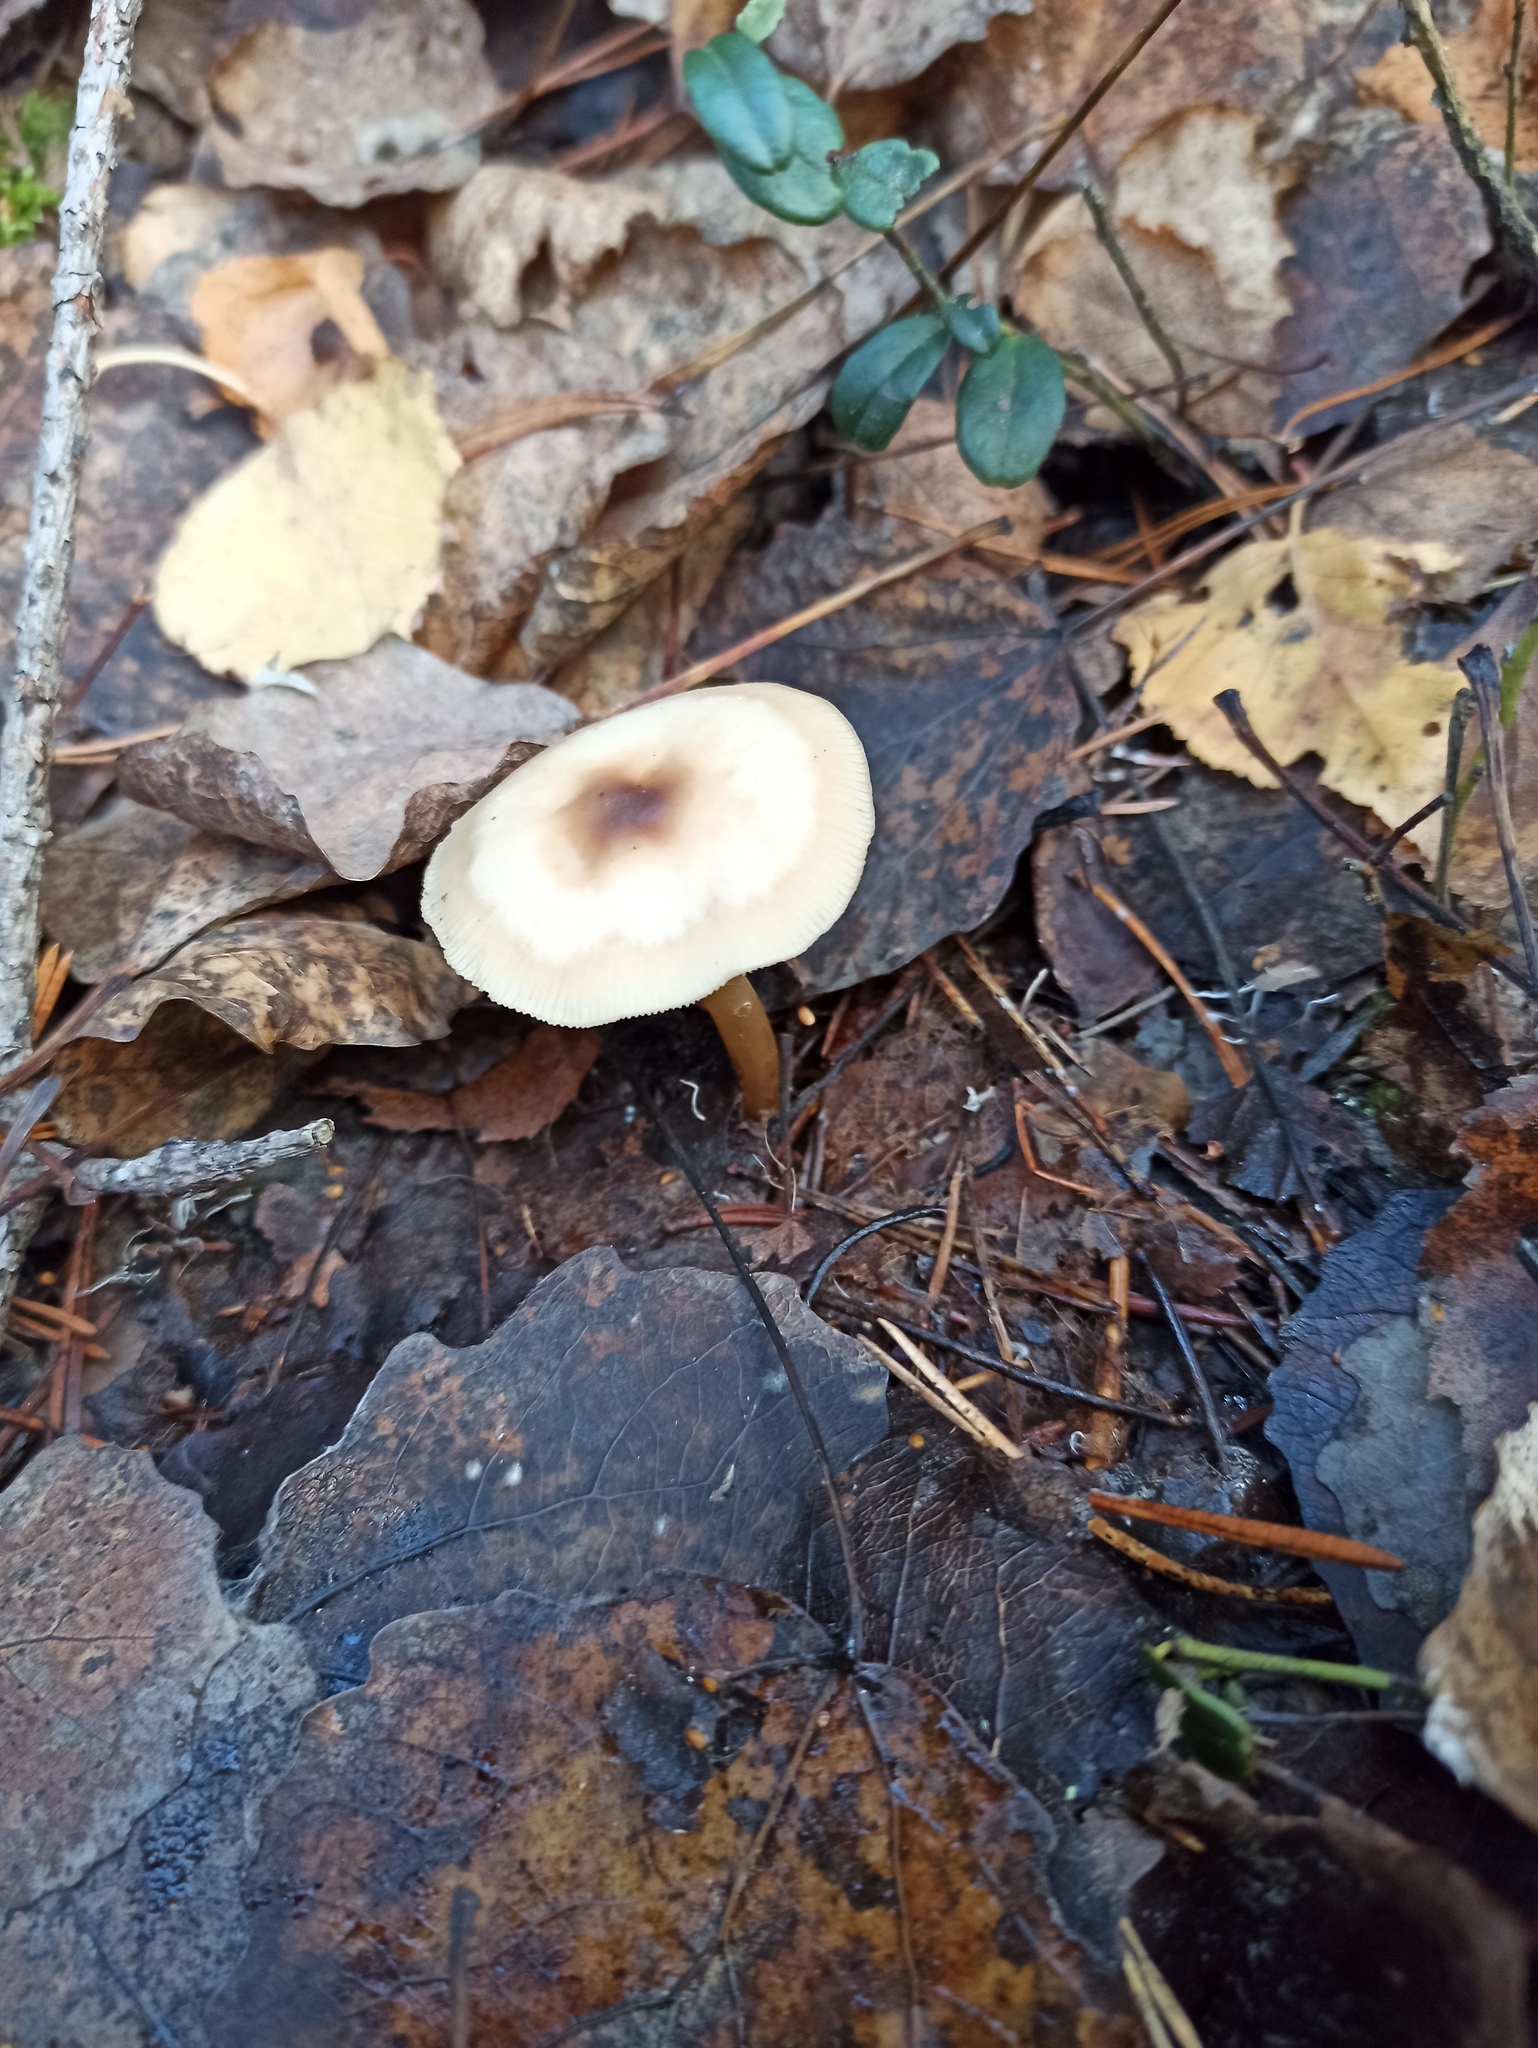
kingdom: Fungi
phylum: Basidiomycota
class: Agaricomycetes
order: Agaricales
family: Omphalotaceae
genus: Rhodocollybia
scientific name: Rhodocollybia asema
